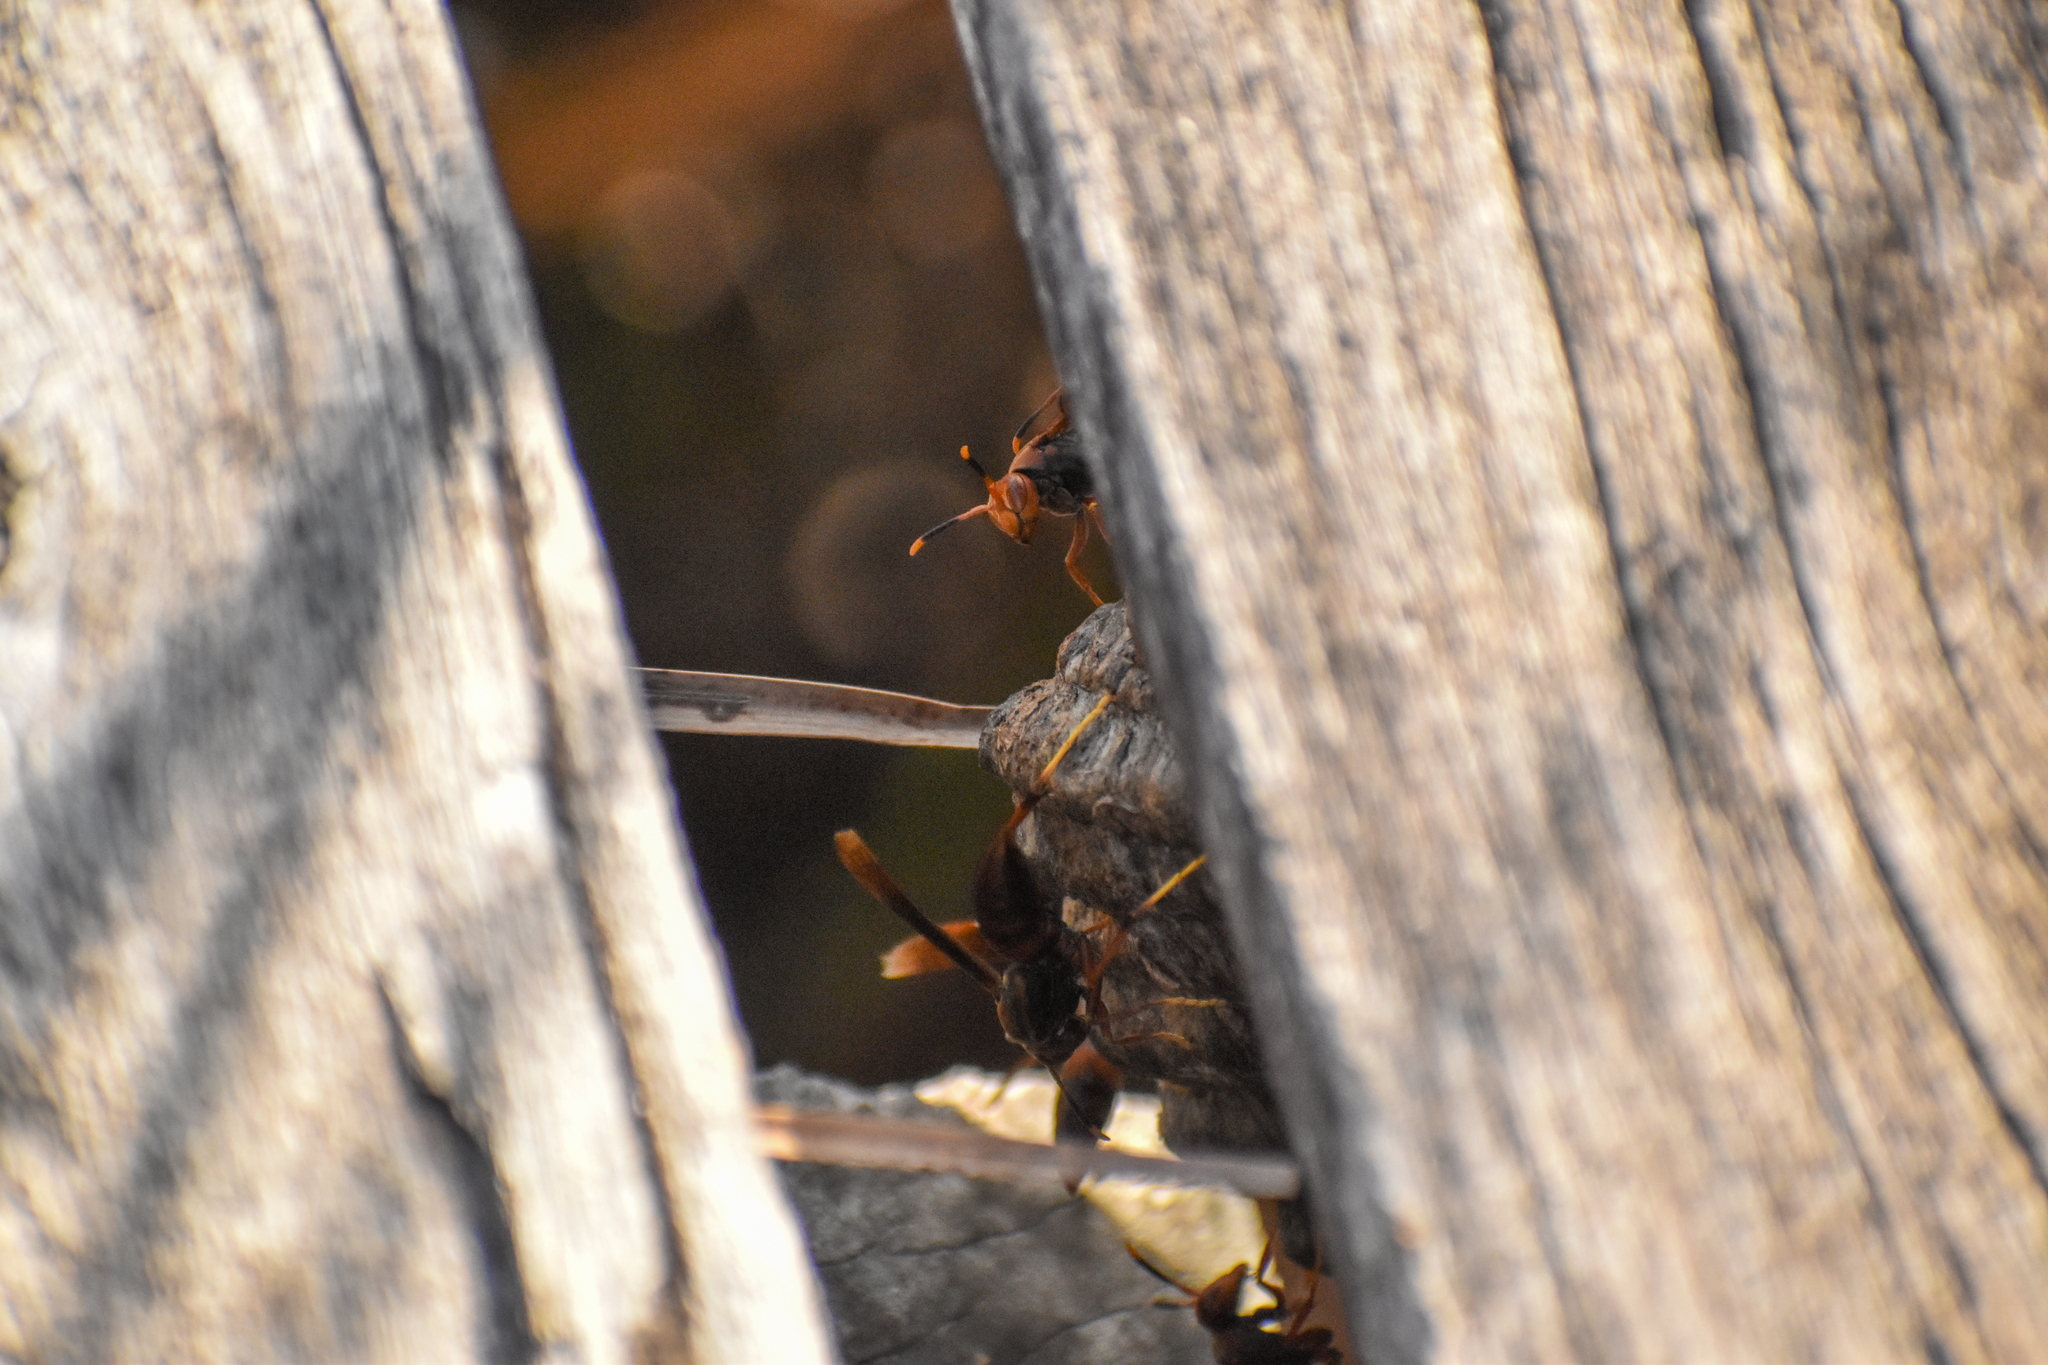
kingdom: Animalia
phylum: Arthropoda
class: Insecta
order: Hymenoptera
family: Pompilidae
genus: Aphanilopterus
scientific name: Aphanilopterus
